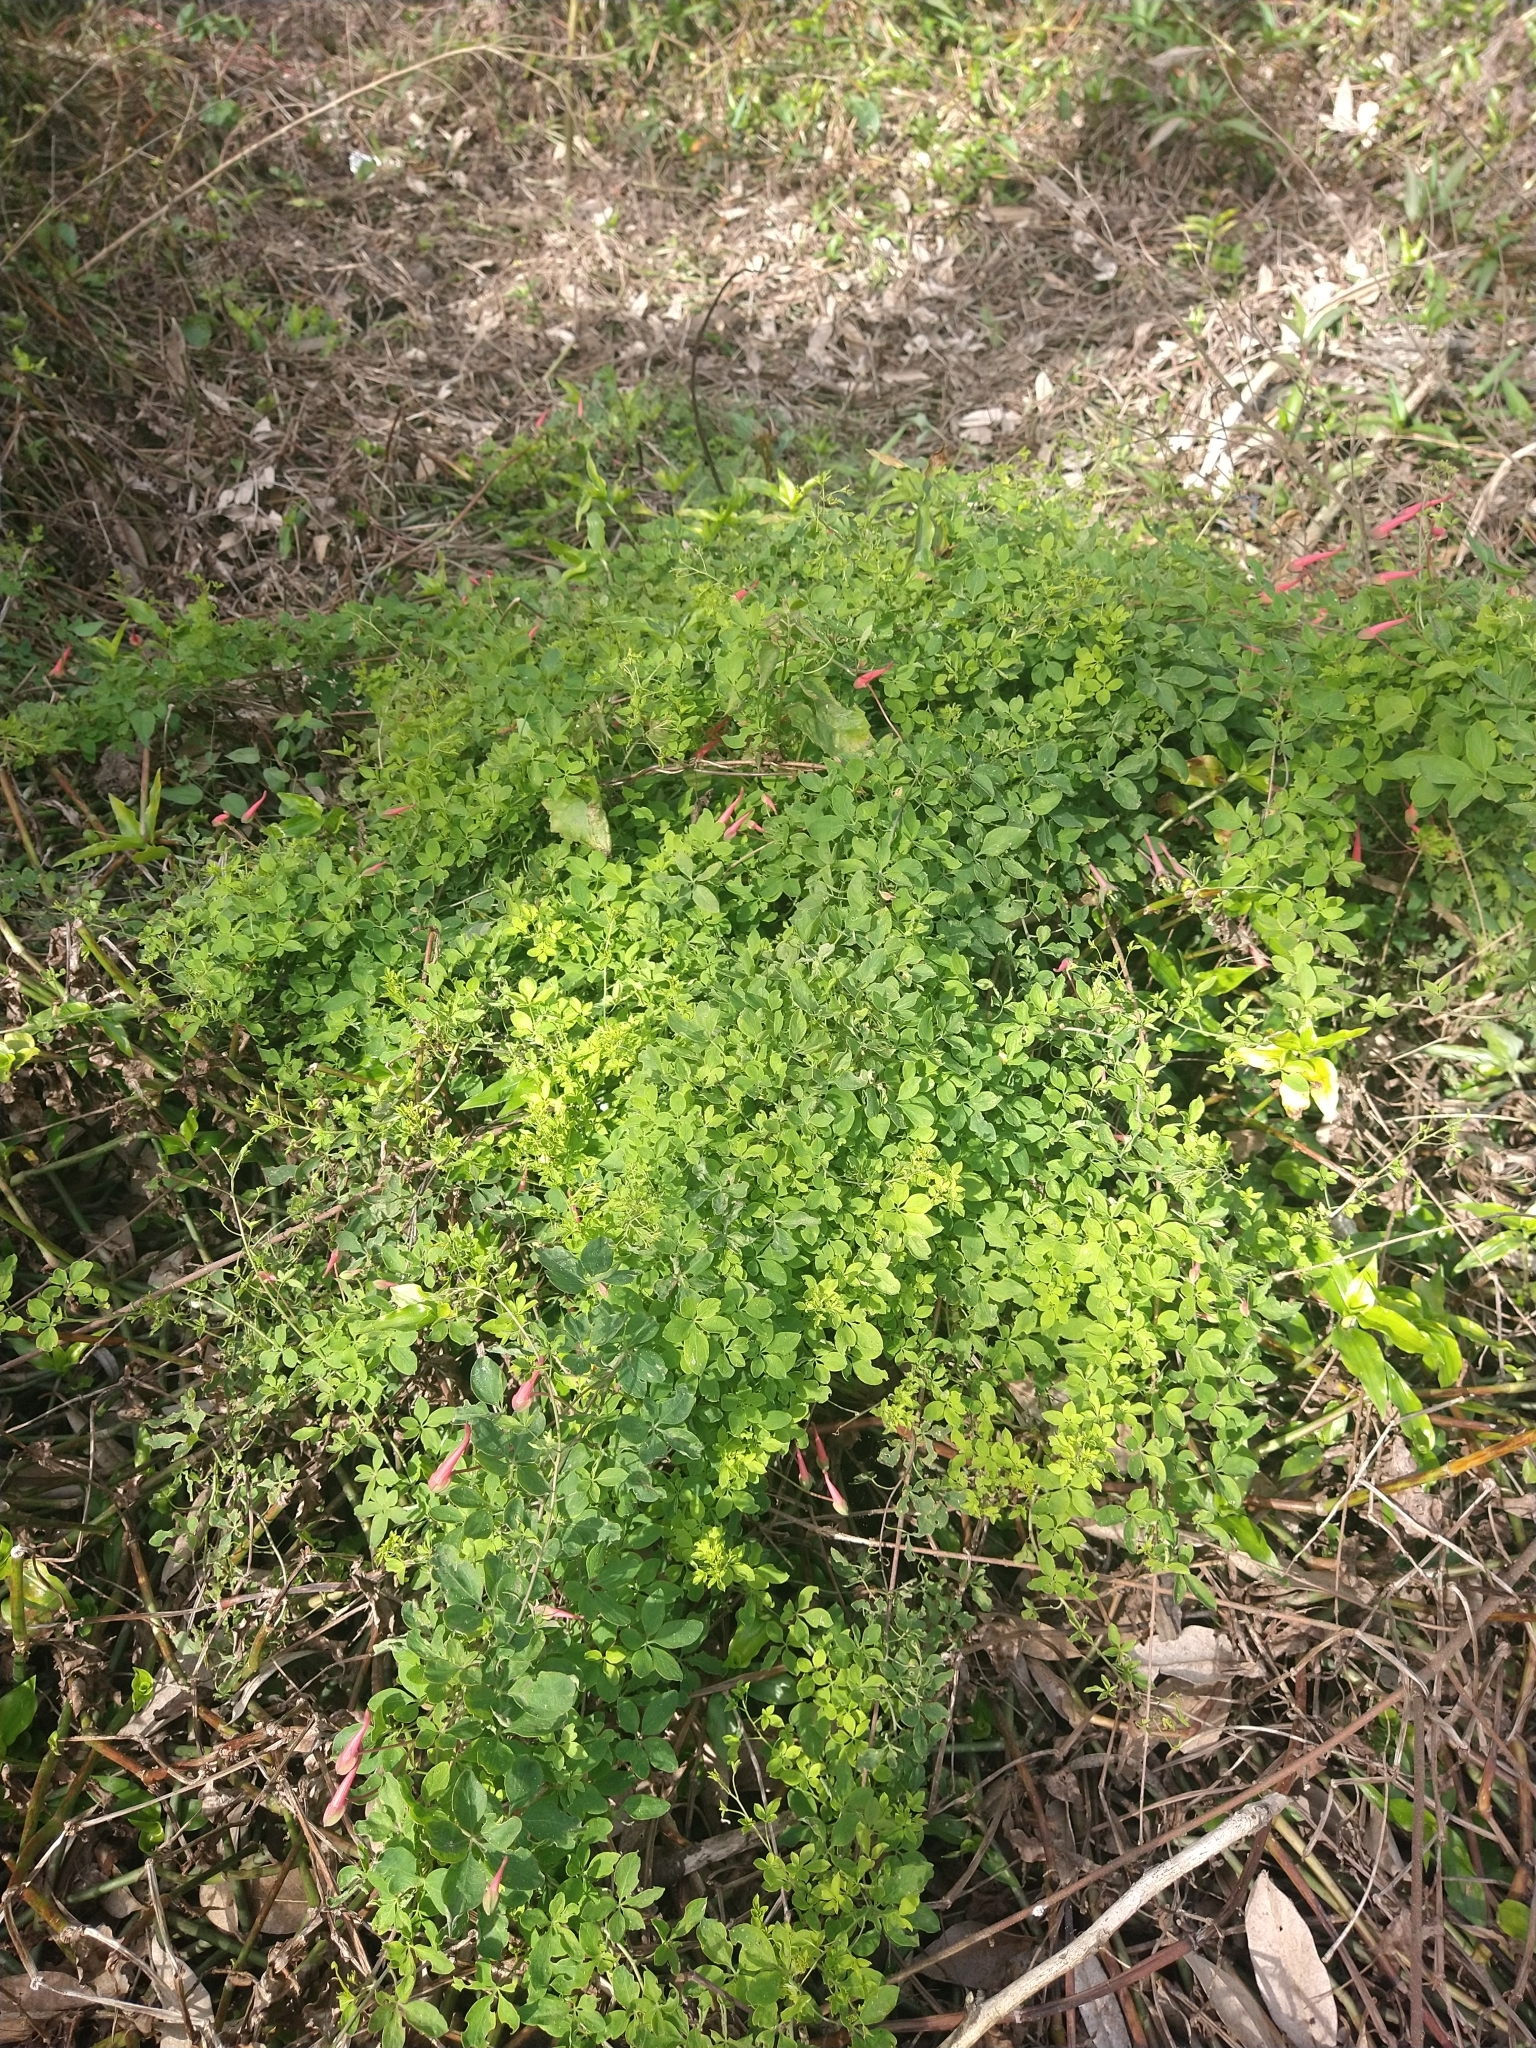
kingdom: Plantae
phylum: Tracheophyta
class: Magnoliopsida
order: Brassicales
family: Tropaeolaceae
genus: Tropaeolum
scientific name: Tropaeolum pentaphyllum
